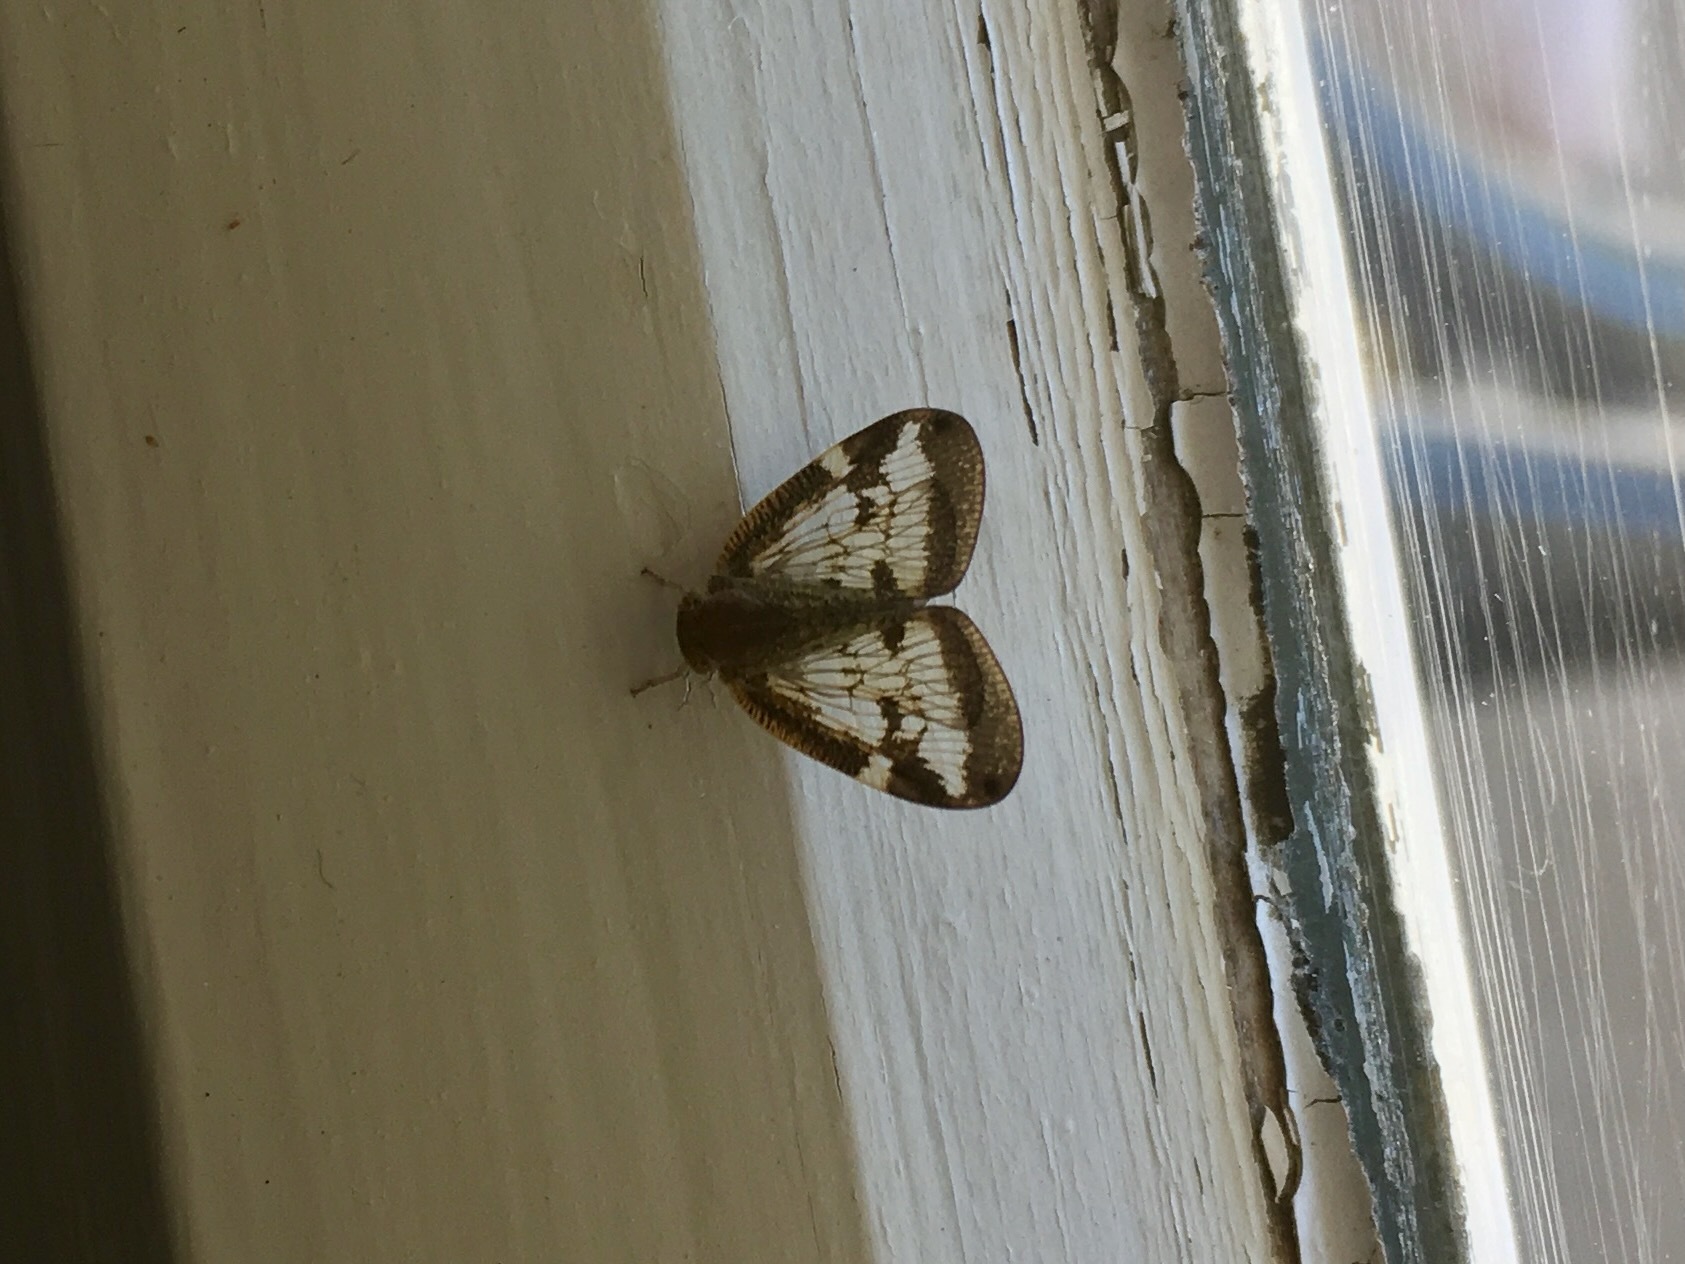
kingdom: Animalia
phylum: Arthropoda
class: Insecta
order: Hemiptera
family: Ricaniidae
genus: Scolypopa
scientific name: Scolypopa australis
